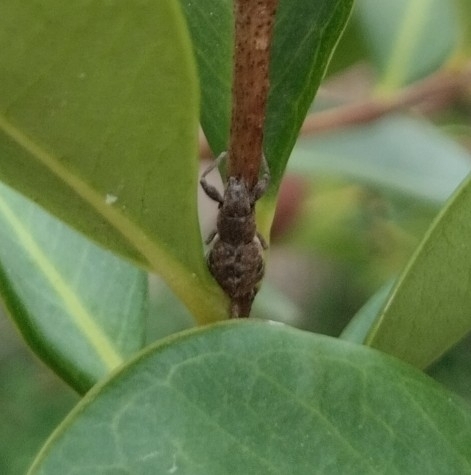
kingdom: Animalia
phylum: Arthropoda
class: Insecta
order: Coleoptera
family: Curculionidae
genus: Naupactus
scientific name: Naupactus cervinus
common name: Fuller rose beetle
